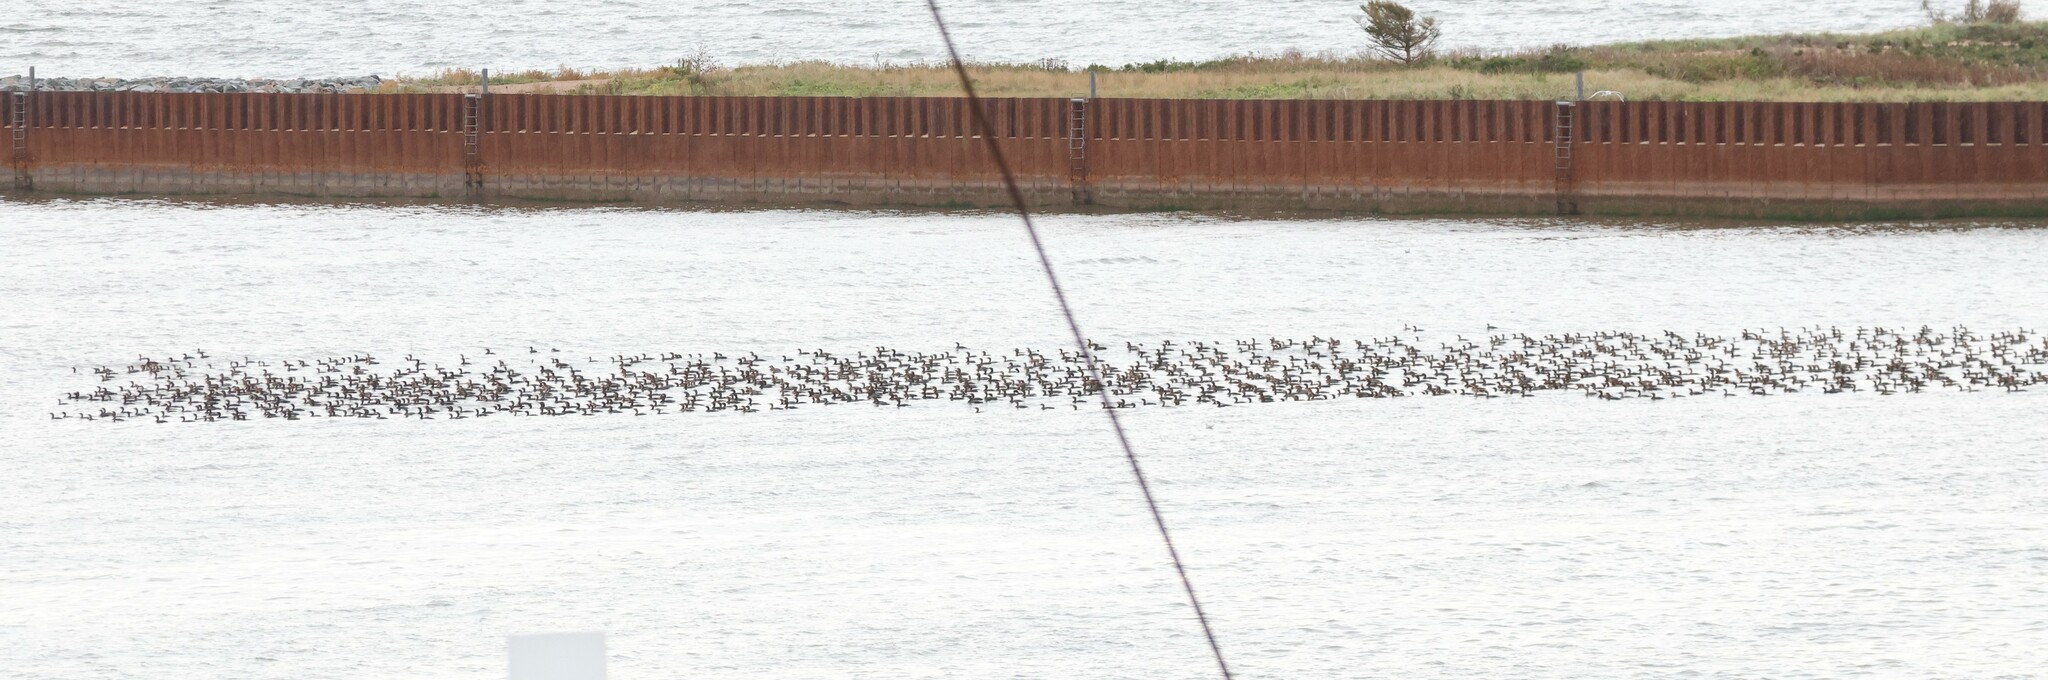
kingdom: Animalia
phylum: Chordata
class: Aves
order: Suliformes
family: Phalacrocoracidae
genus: Phalacrocorax
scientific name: Phalacrocorax auritus
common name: Double-crested cormorant
